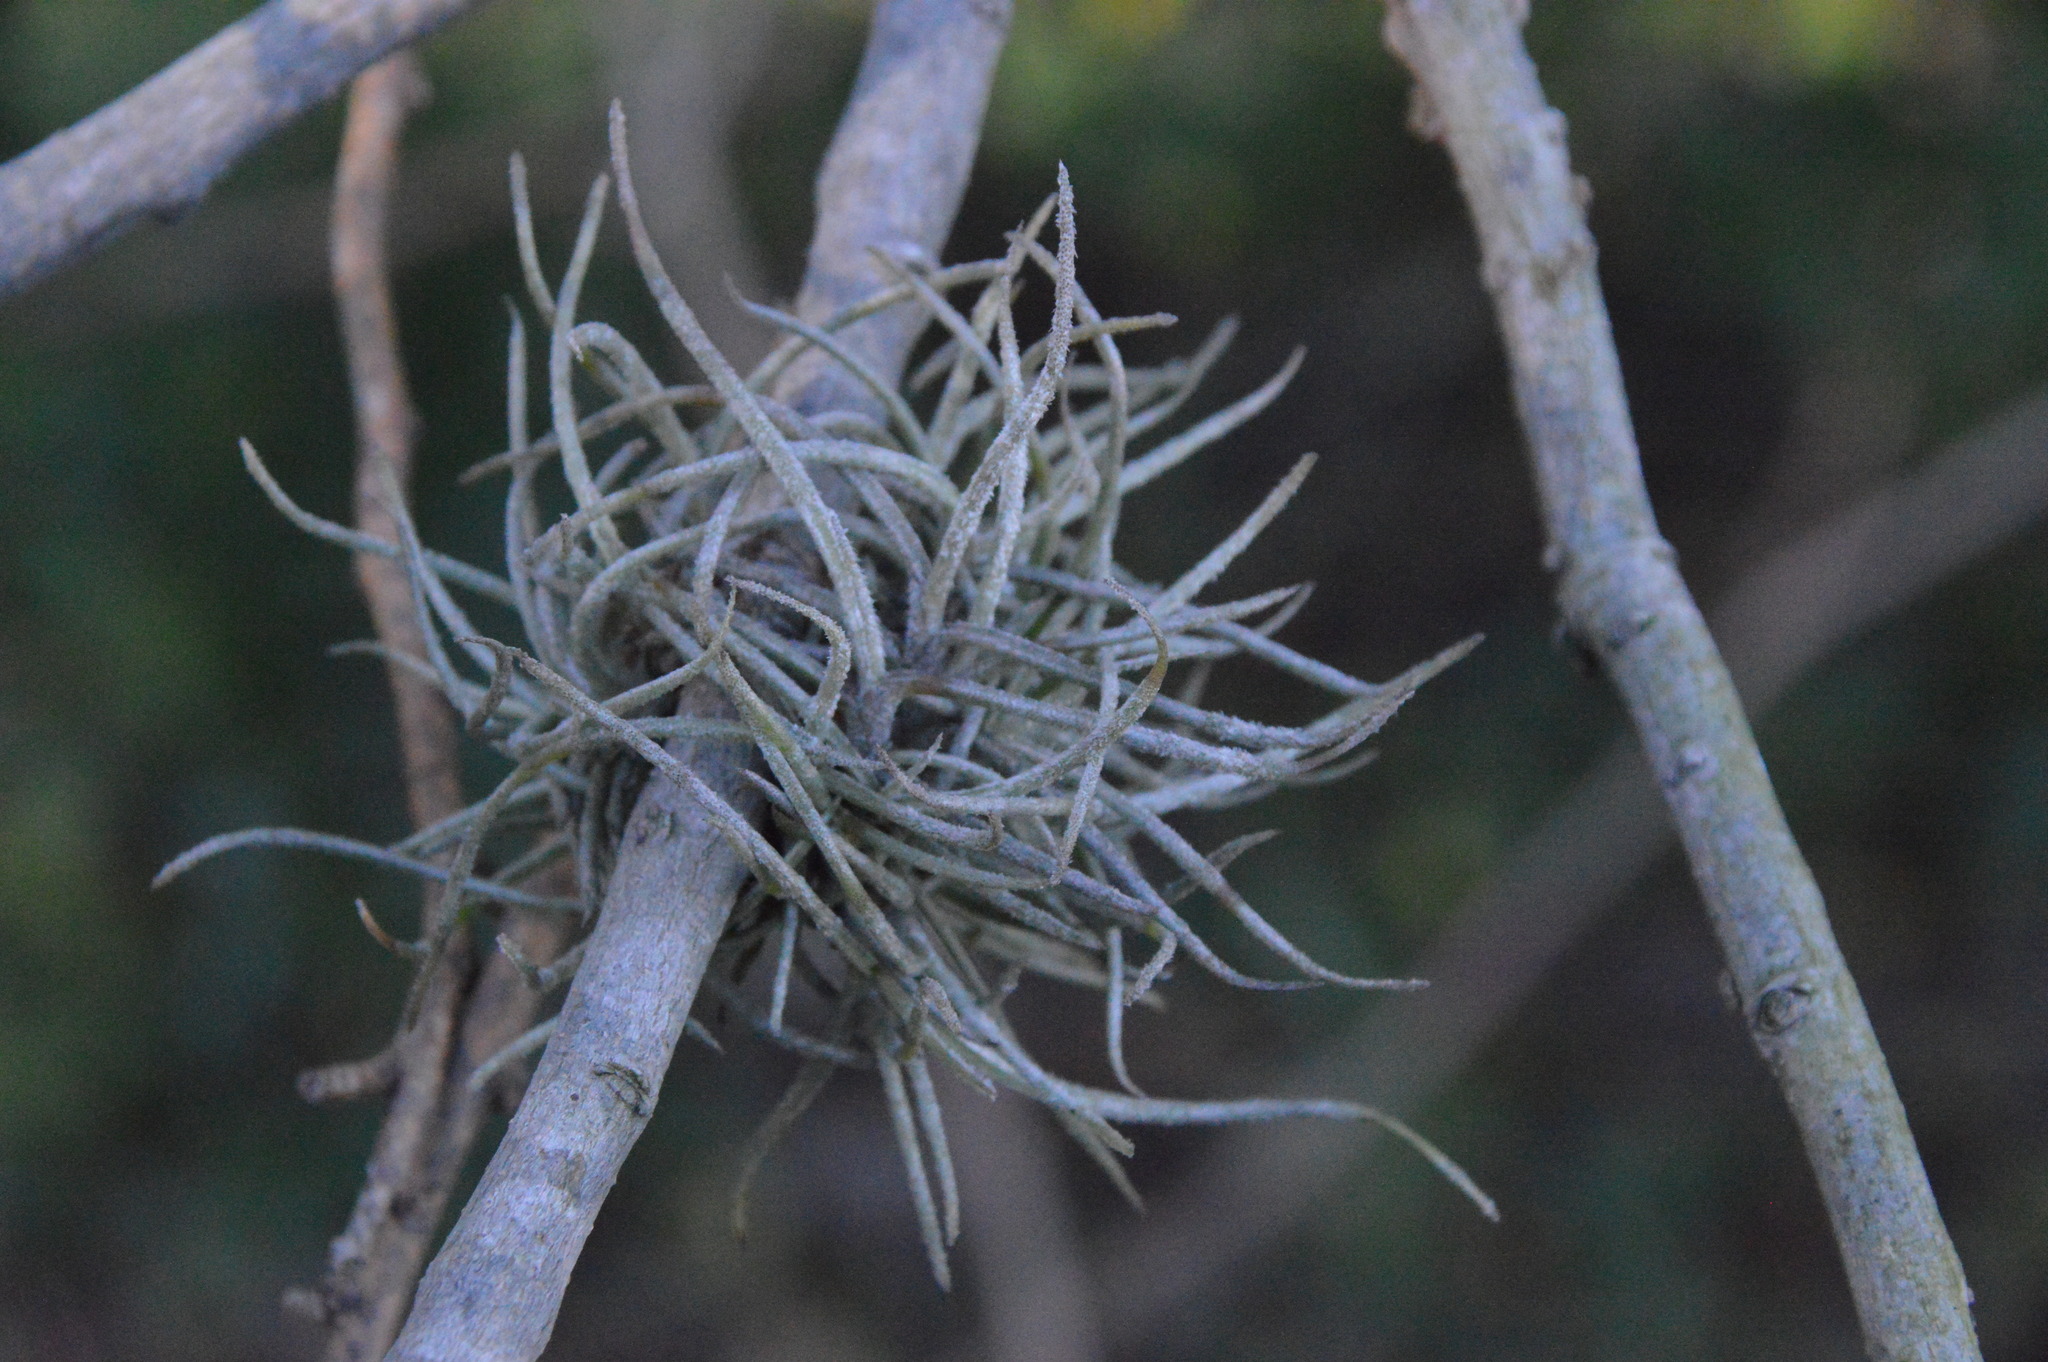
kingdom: Plantae
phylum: Tracheophyta
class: Liliopsida
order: Poales
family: Bromeliaceae
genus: Tillandsia
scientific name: Tillandsia recurvata
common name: Small ballmoss
